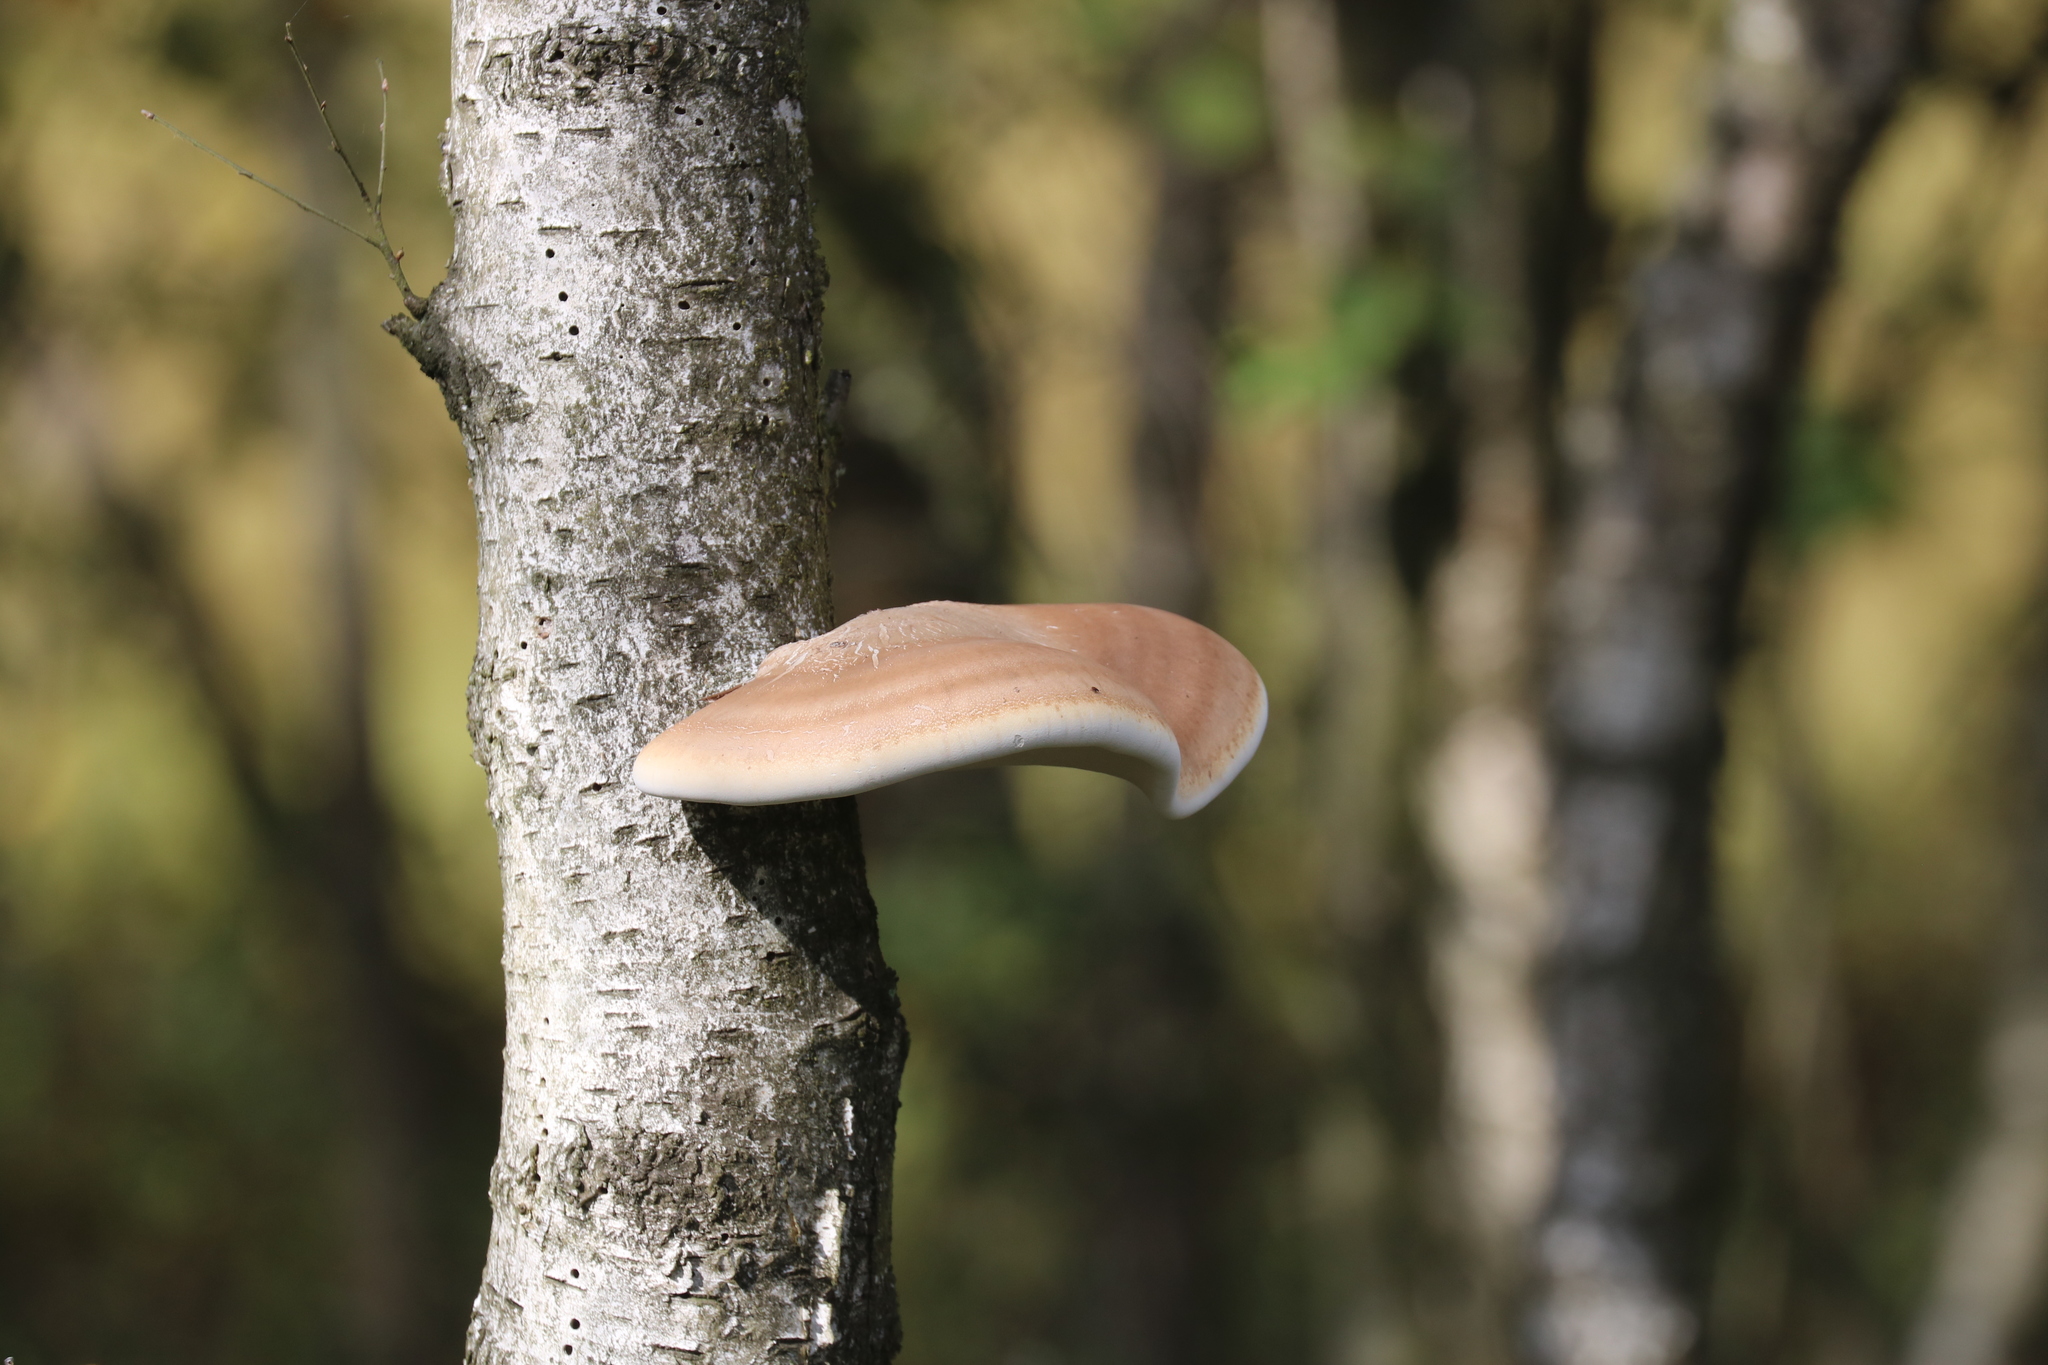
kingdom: Fungi
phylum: Basidiomycota
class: Agaricomycetes
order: Polyporales
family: Fomitopsidaceae
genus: Fomitopsis
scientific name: Fomitopsis betulina
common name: Birch polypore
